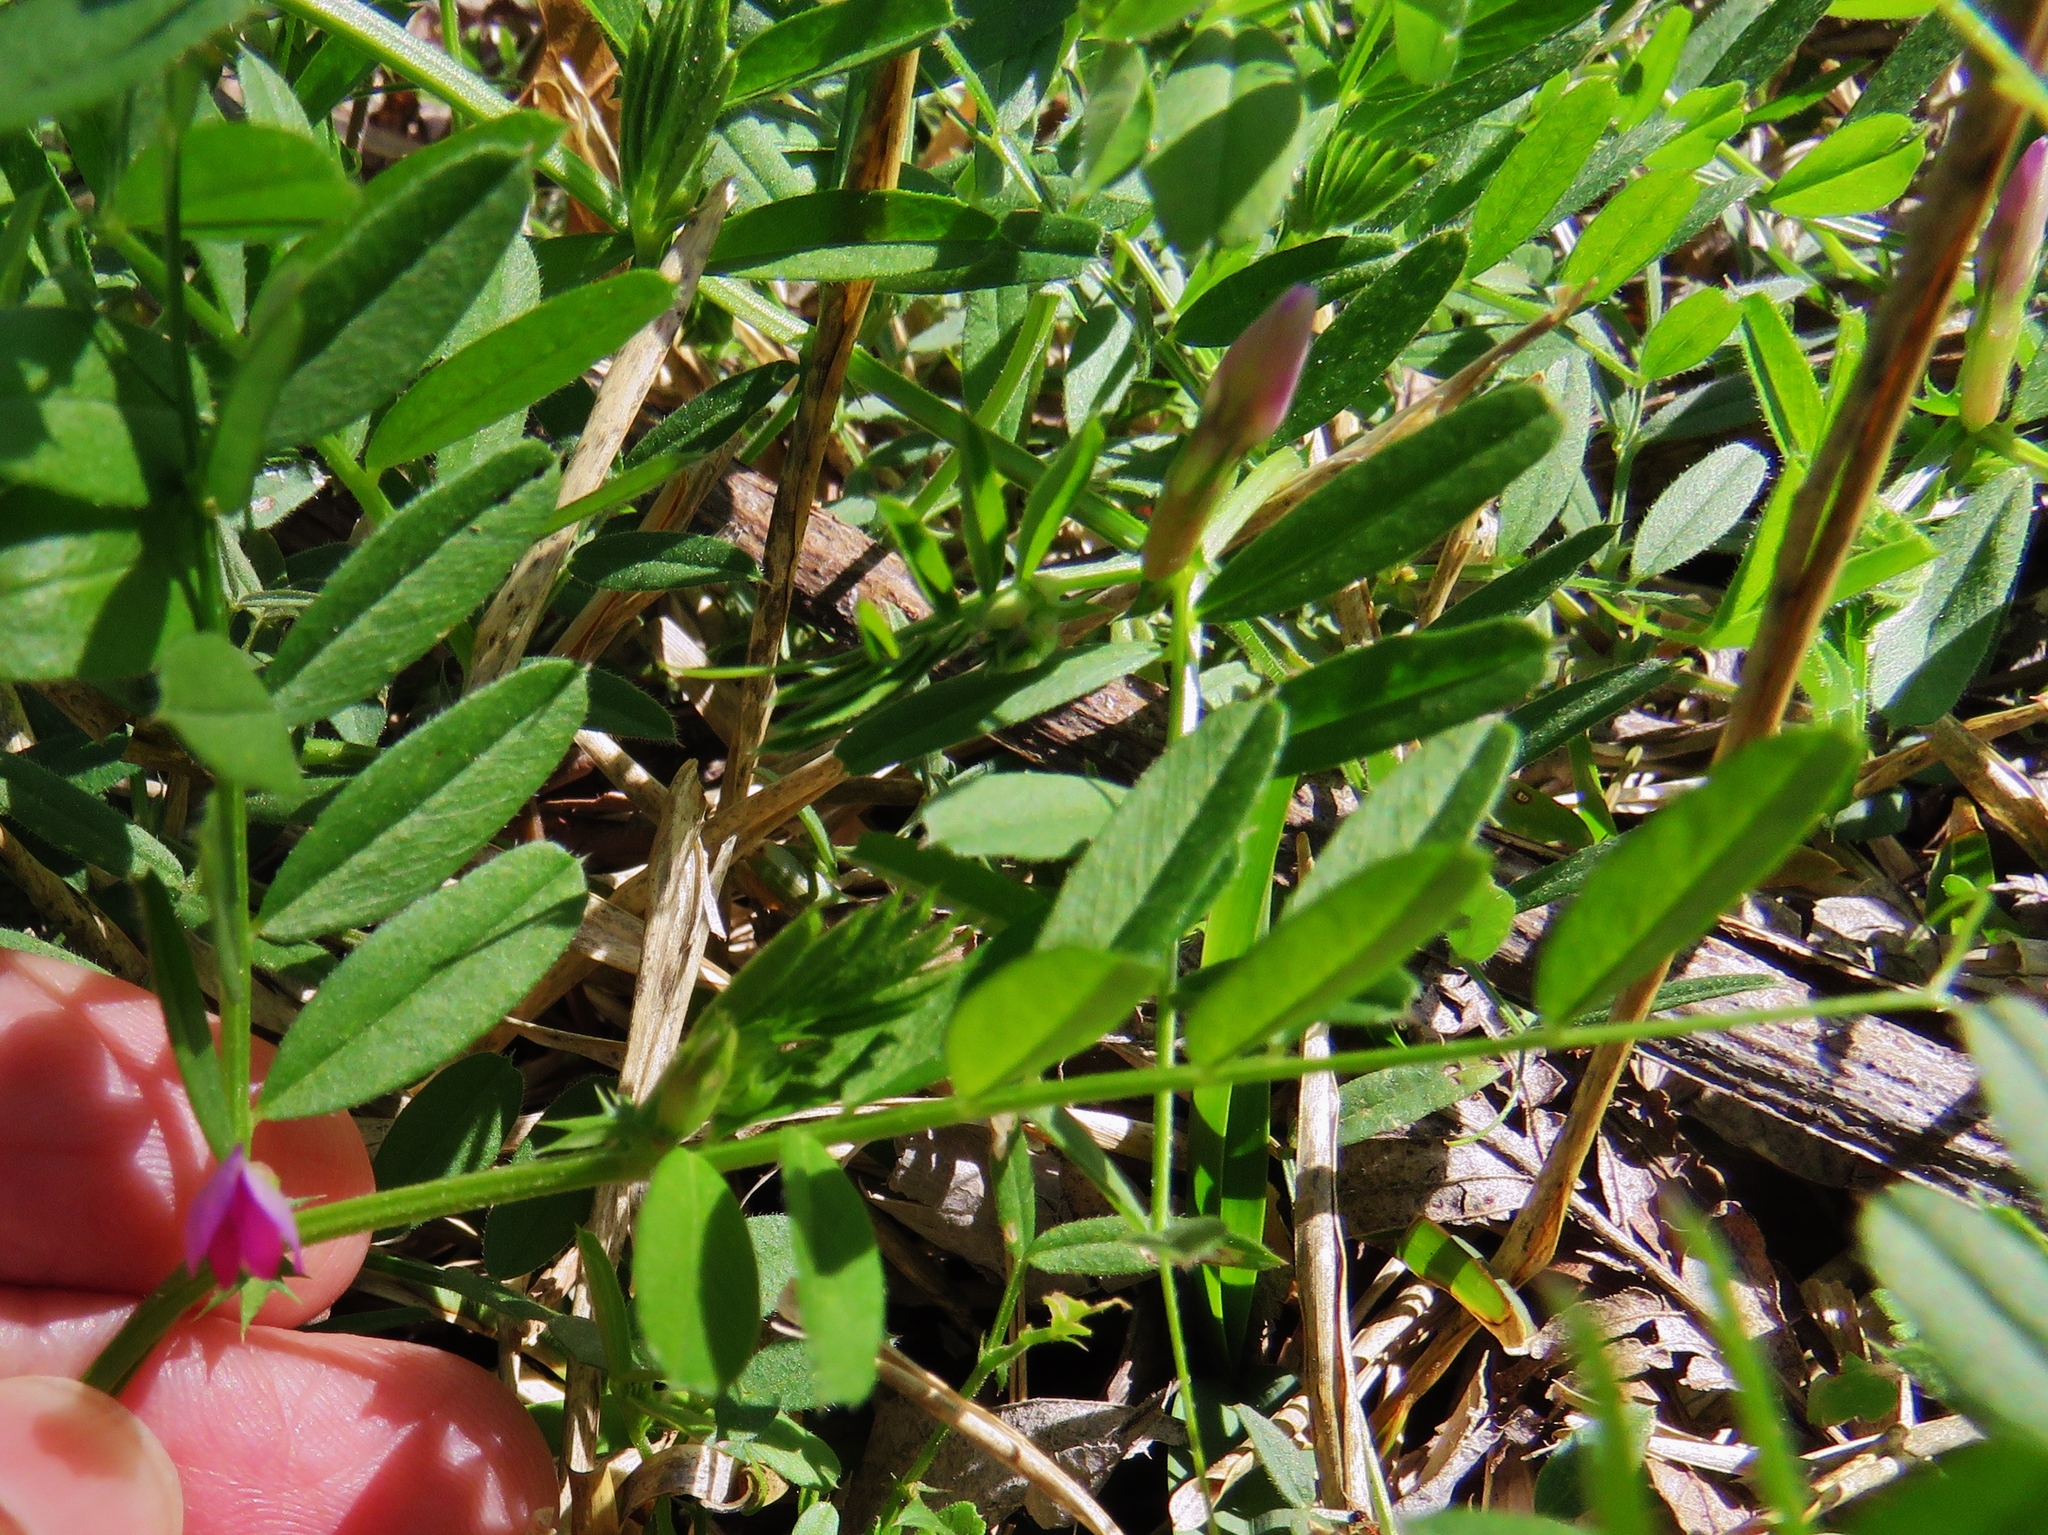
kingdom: Plantae
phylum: Tracheophyta
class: Magnoliopsida
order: Fabales
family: Fabaceae
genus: Vicia
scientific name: Vicia sativa
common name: Garden vetch
